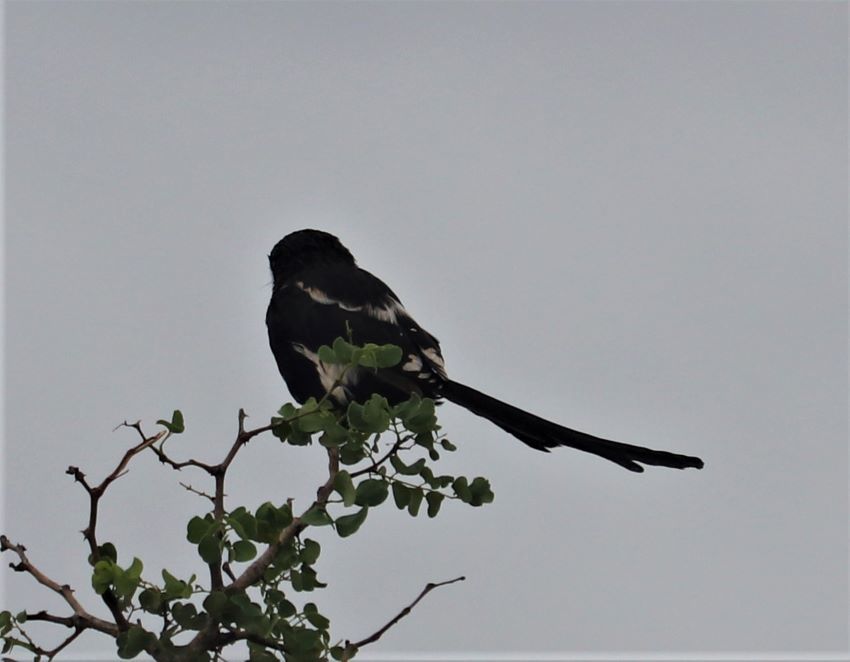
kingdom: Animalia
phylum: Chordata
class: Aves
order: Passeriformes
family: Laniidae
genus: Urolestes
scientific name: Urolestes melanoleucus
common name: Magpie shrike
